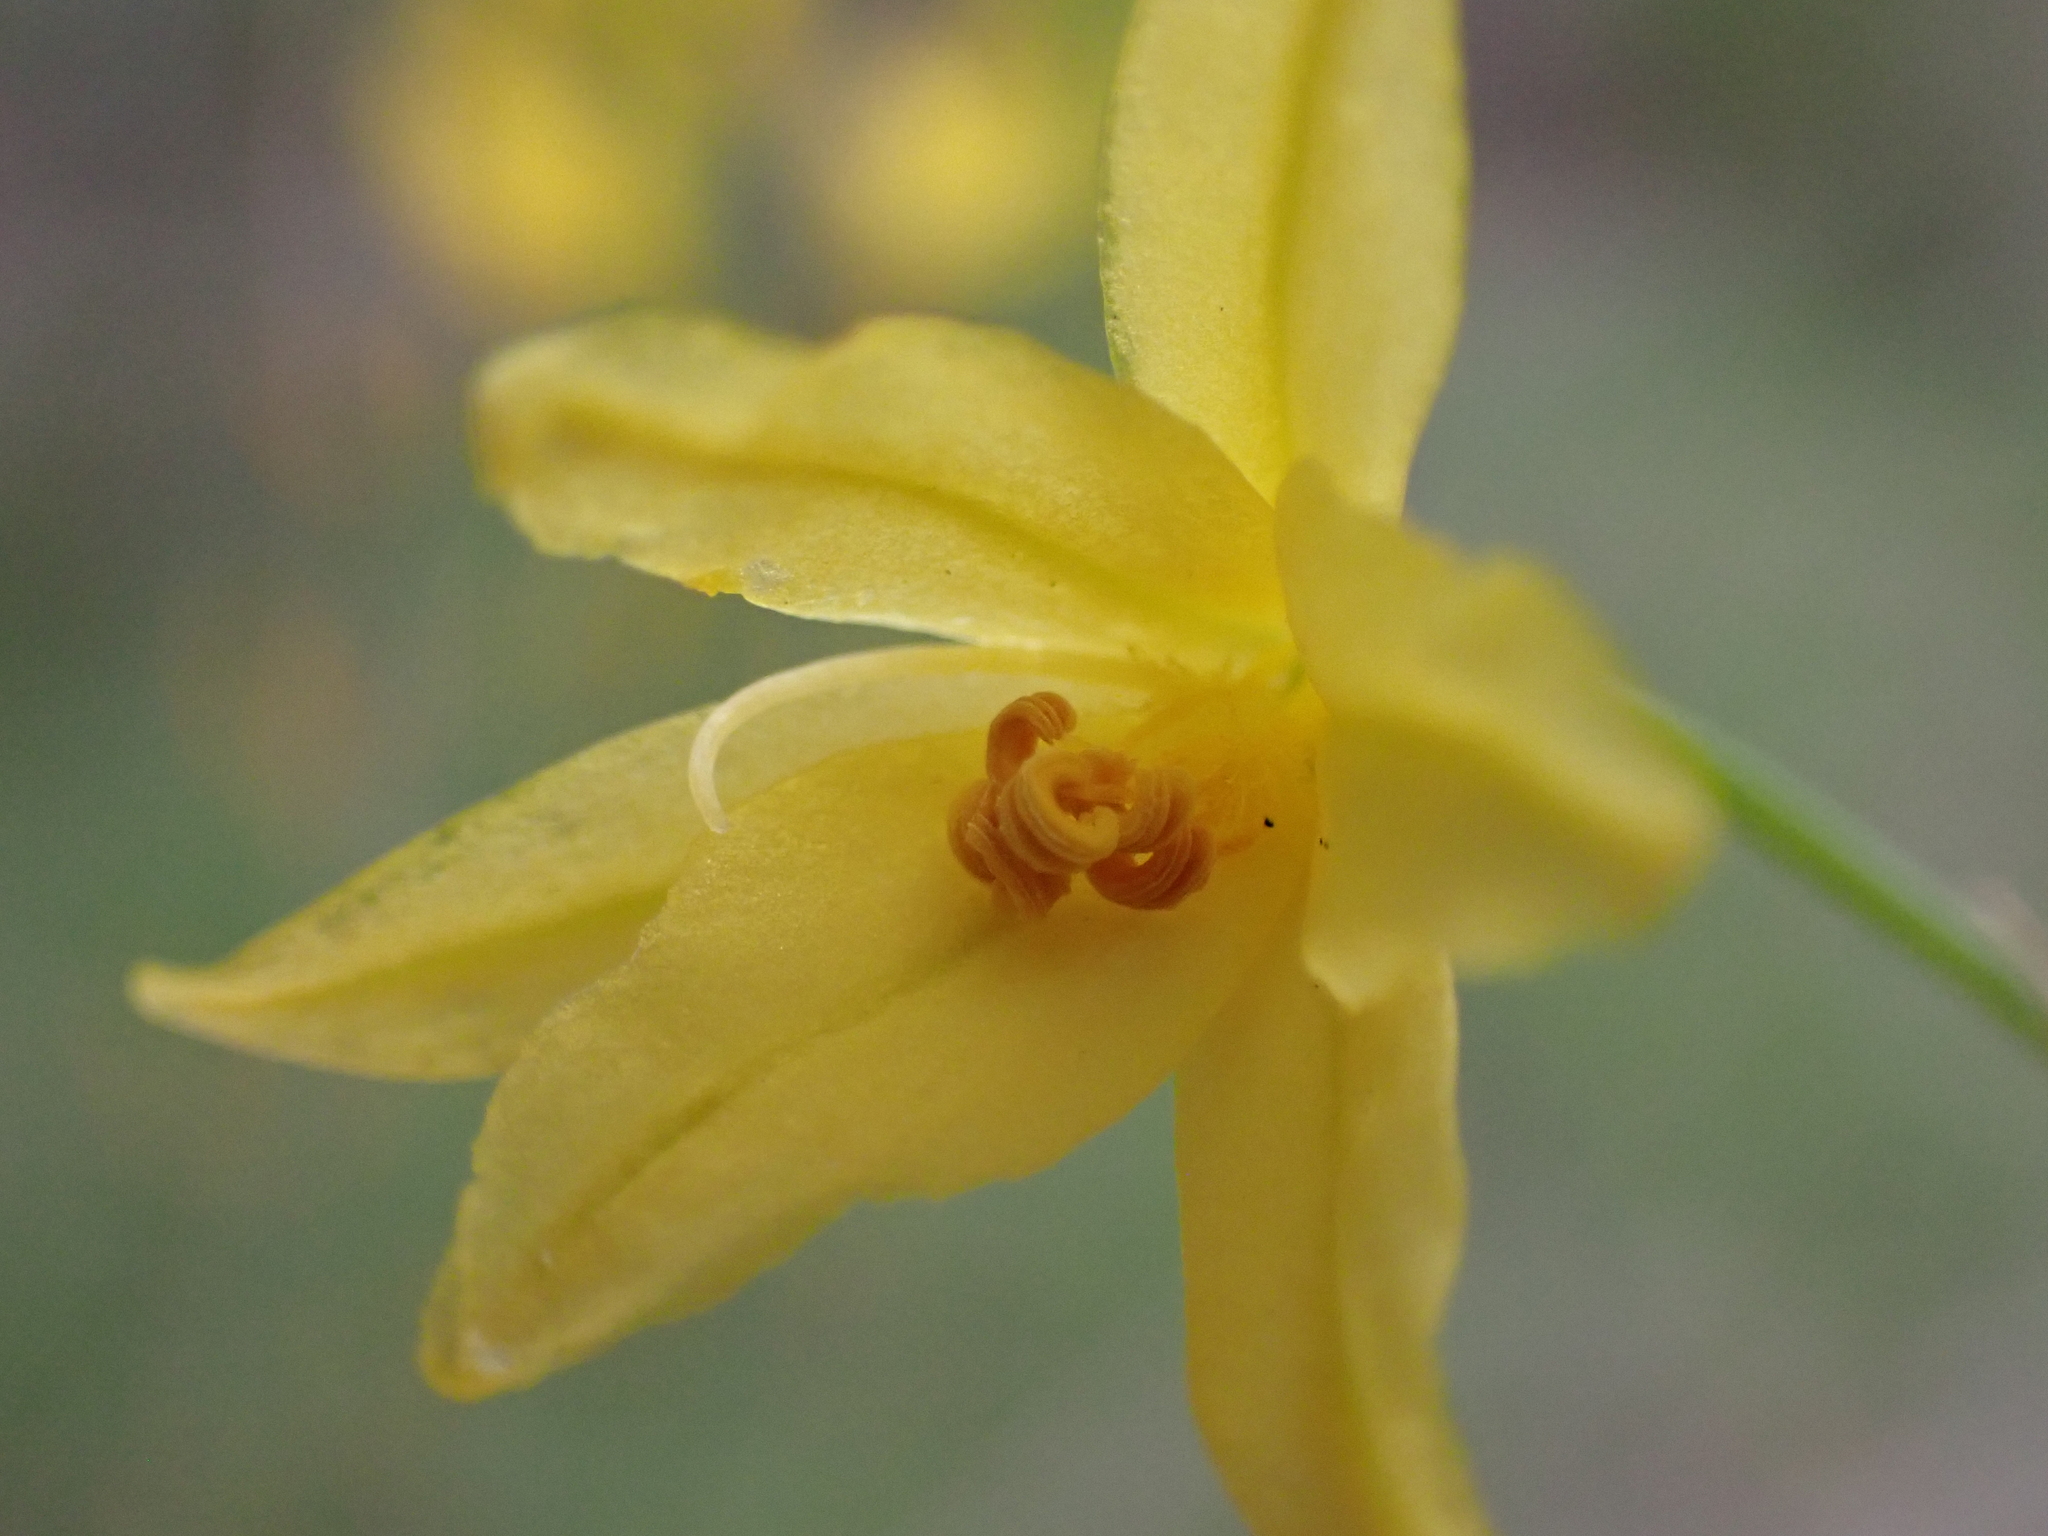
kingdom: Plantae
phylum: Tracheophyta
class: Liliopsida
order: Asparagales
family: Asphodelaceae
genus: Bulbine
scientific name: Bulbine glauca
